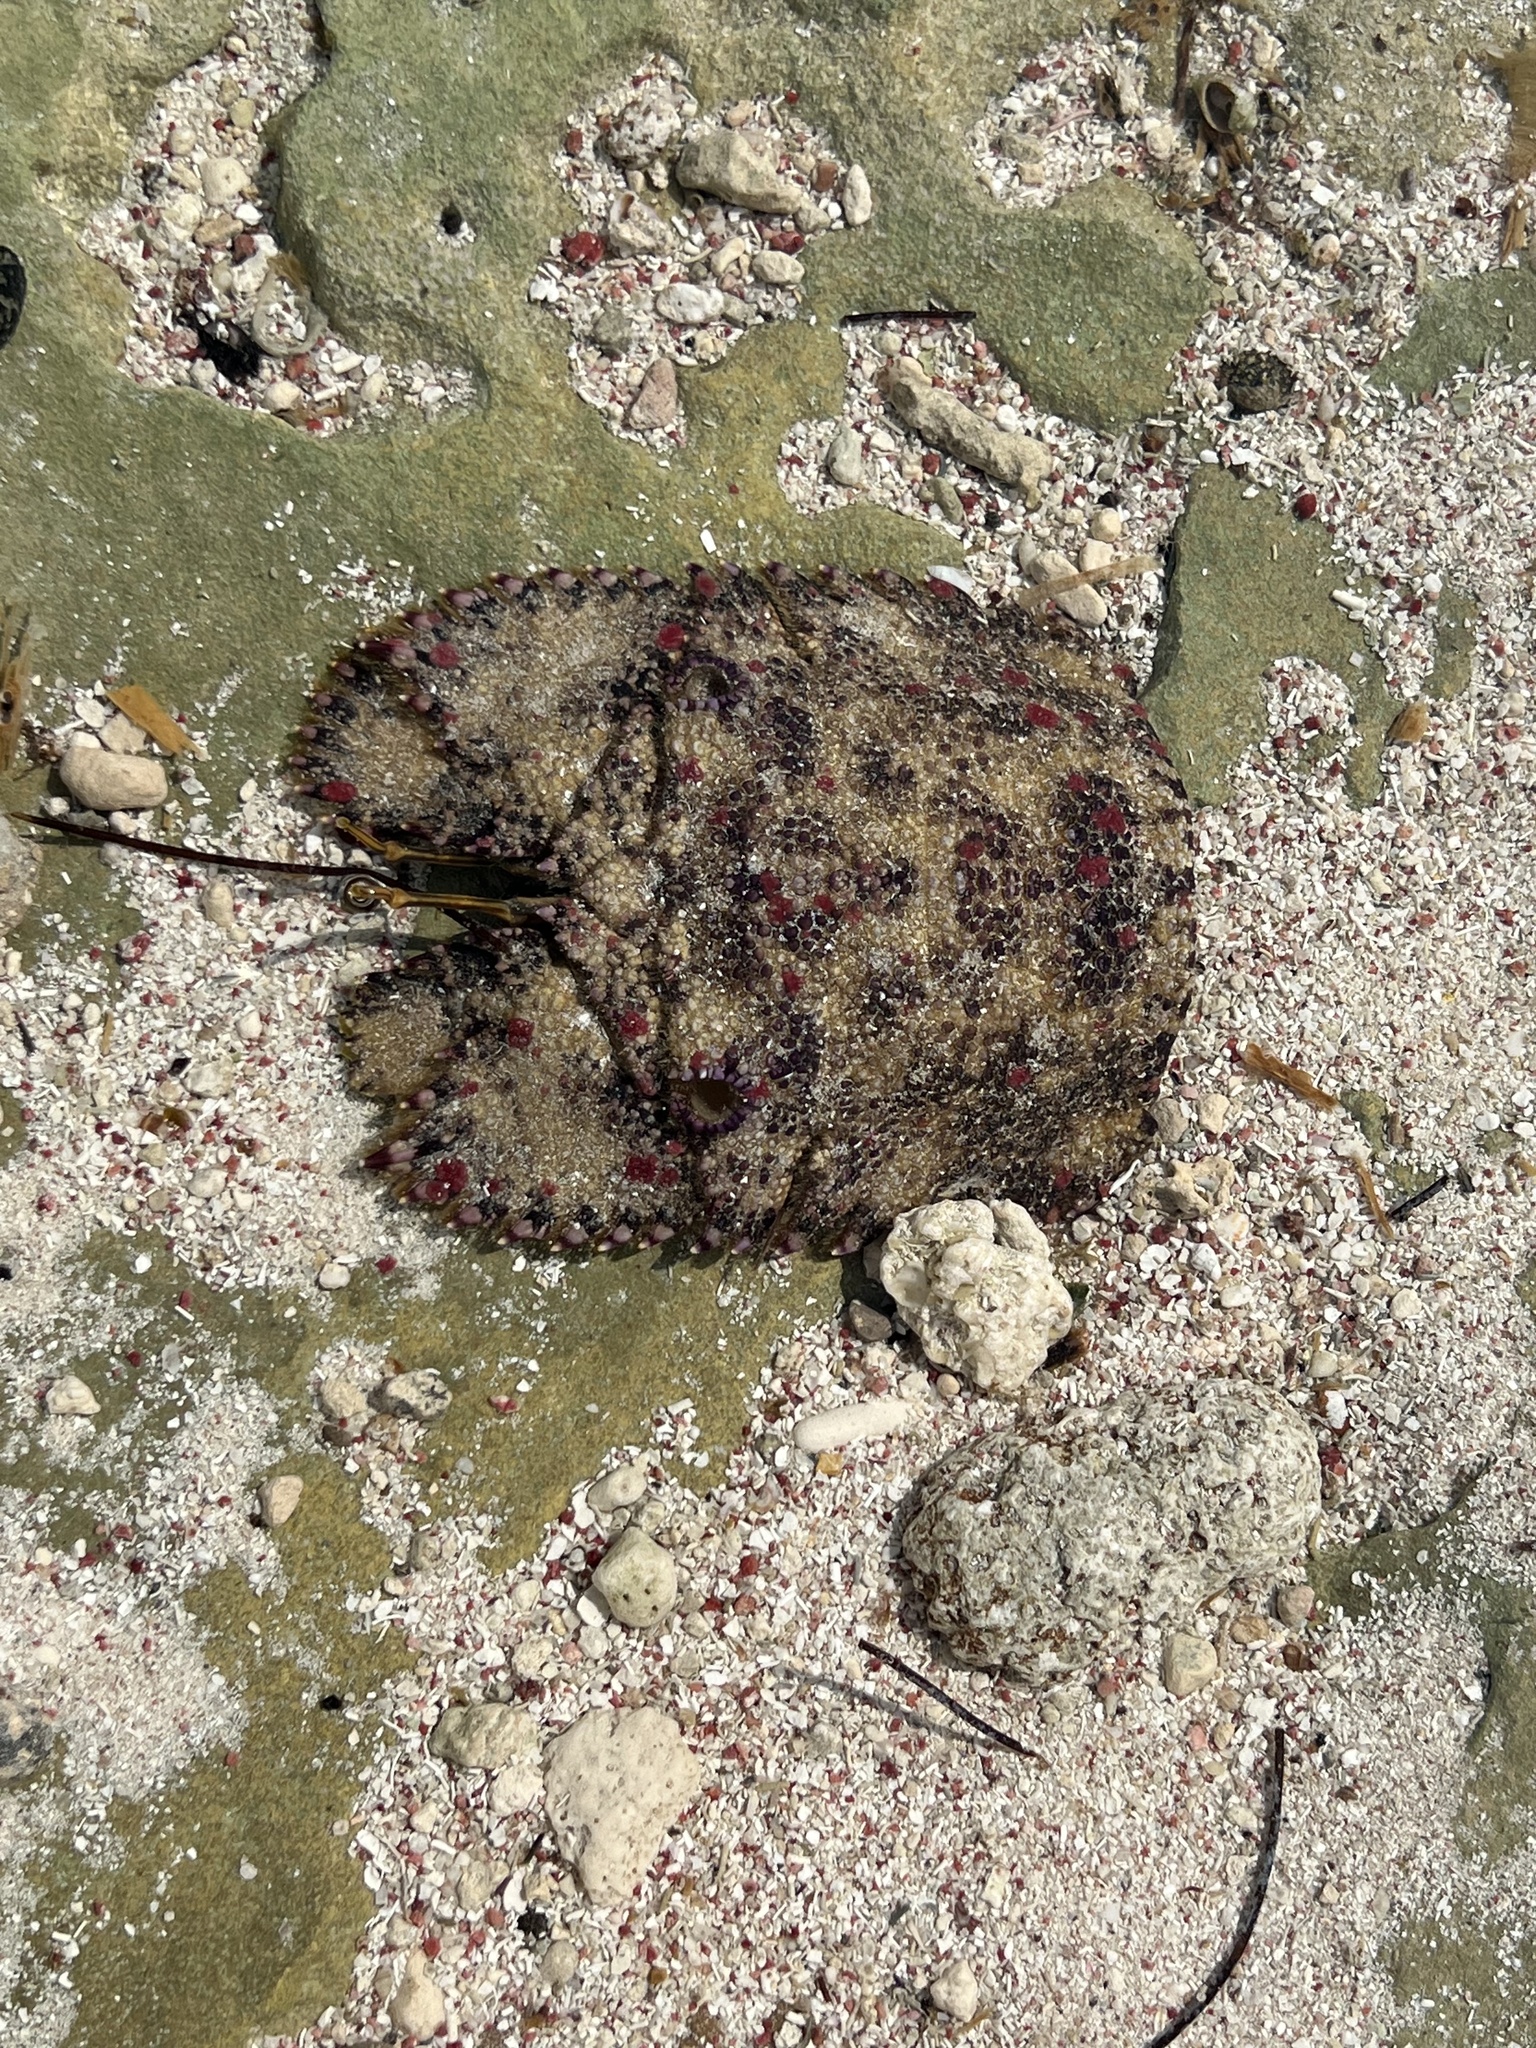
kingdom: Animalia
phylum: Arthropoda
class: Malacostraca
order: Decapoda
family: Scyllaridae
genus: Parribacus
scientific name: Parribacus antarcticus
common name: Sculptured mitten lobster
